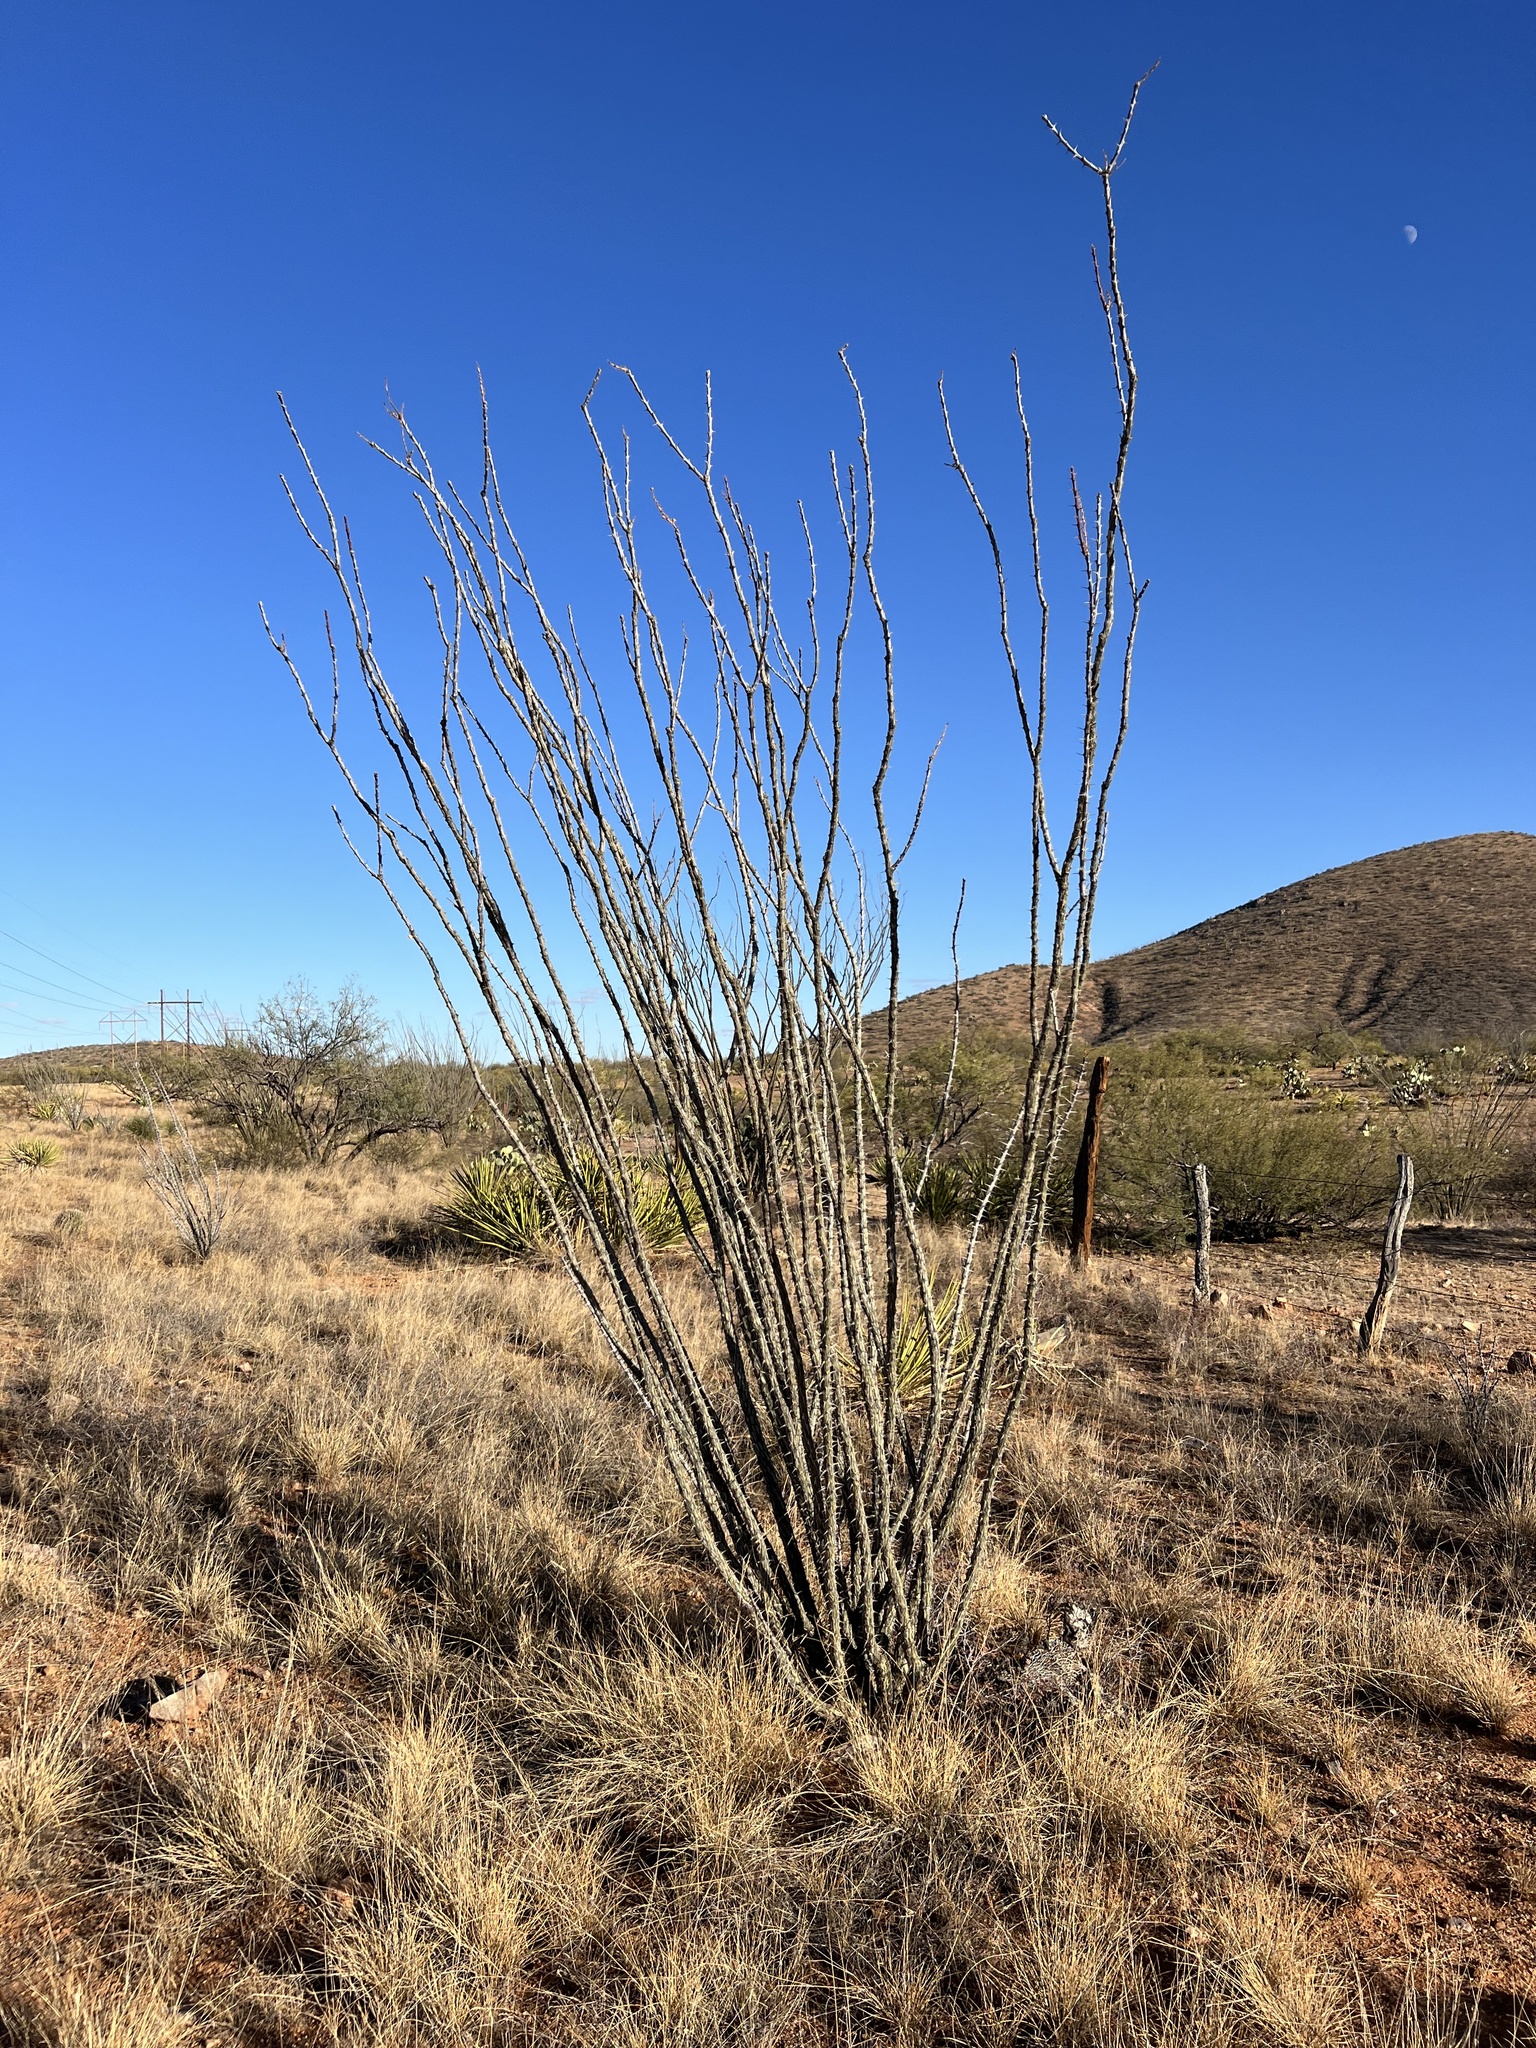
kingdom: Plantae
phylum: Tracheophyta
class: Magnoliopsida
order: Ericales
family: Fouquieriaceae
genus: Fouquieria
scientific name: Fouquieria splendens
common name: Vine-cactus
